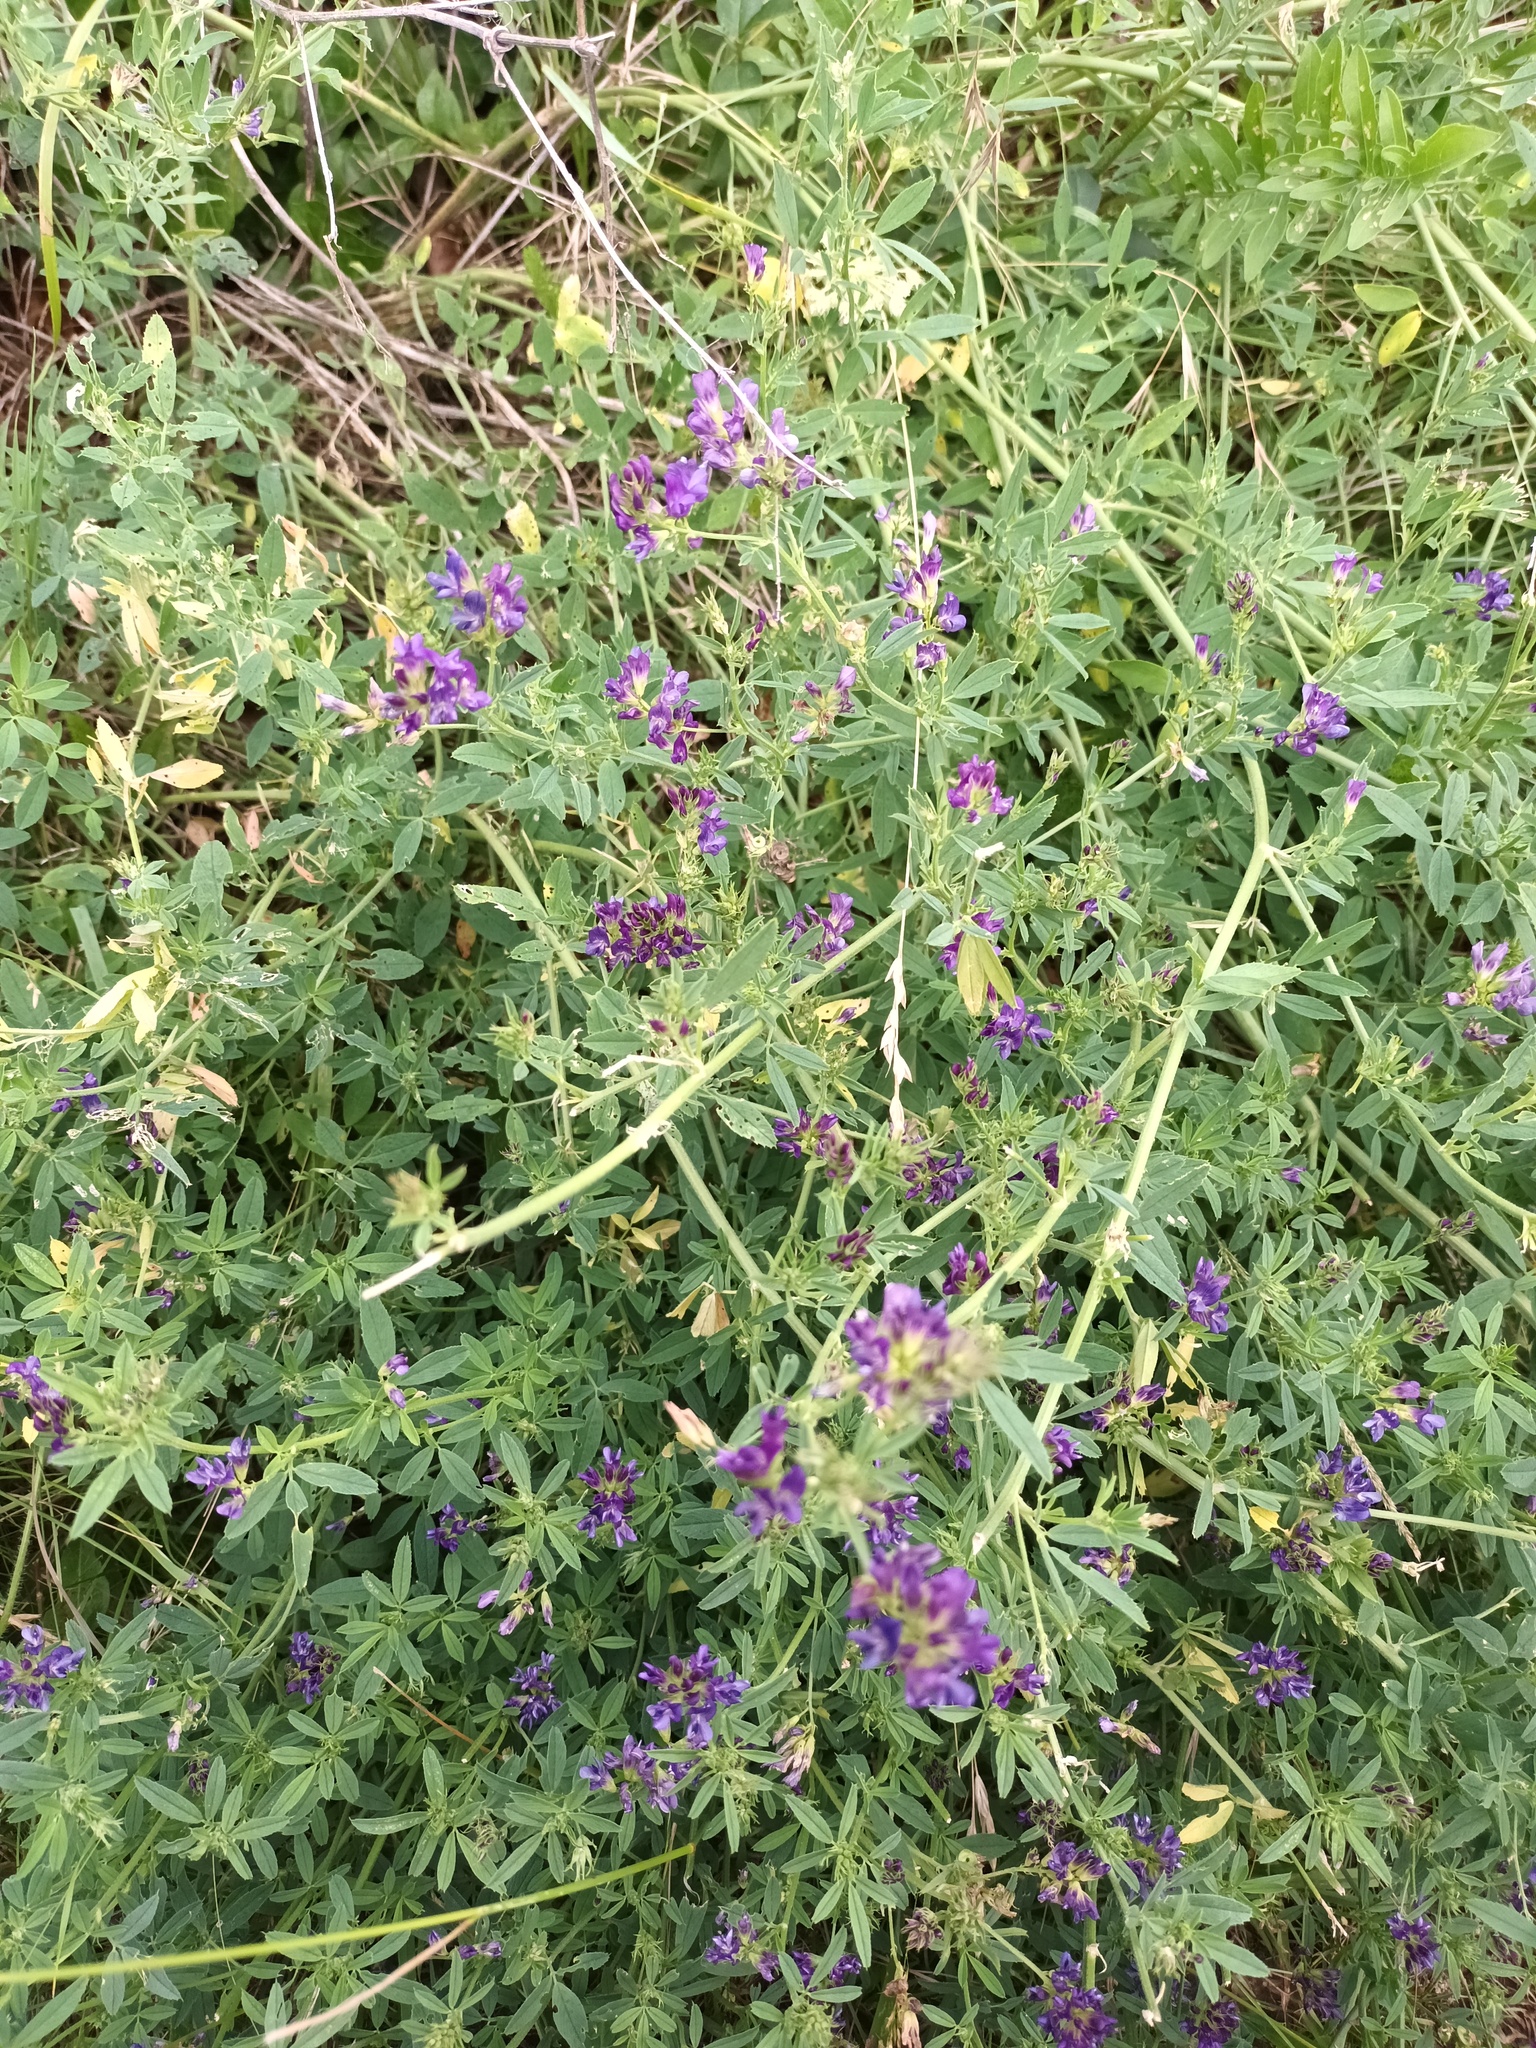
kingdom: Plantae
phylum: Tracheophyta
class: Magnoliopsida
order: Fabales
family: Fabaceae
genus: Medicago
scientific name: Medicago sativa
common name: Alfalfa
